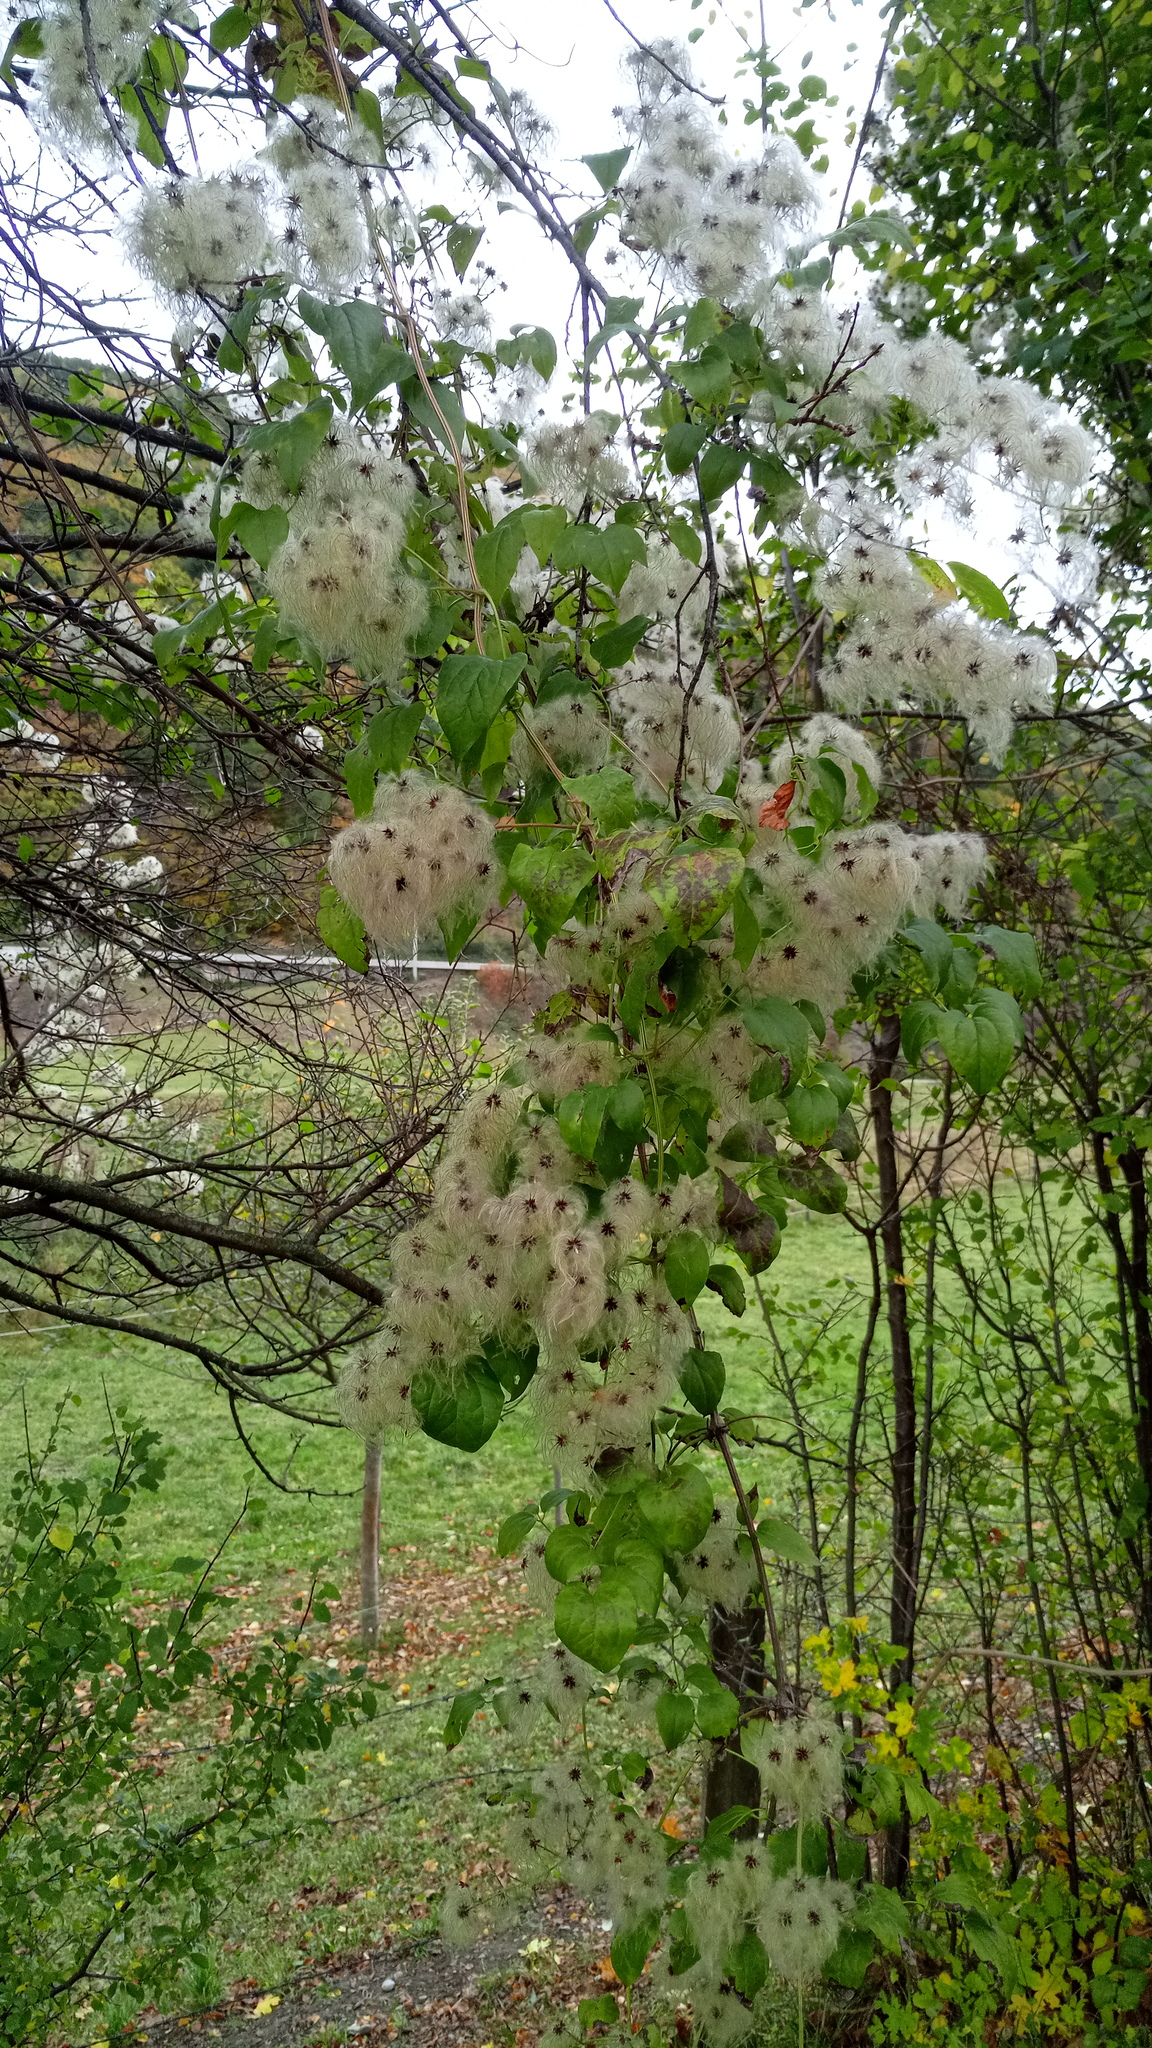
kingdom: Plantae
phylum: Tracheophyta
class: Magnoliopsida
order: Ranunculales
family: Ranunculaceae
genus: Clematis
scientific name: Clematis vitalba
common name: Evergreen clematis
